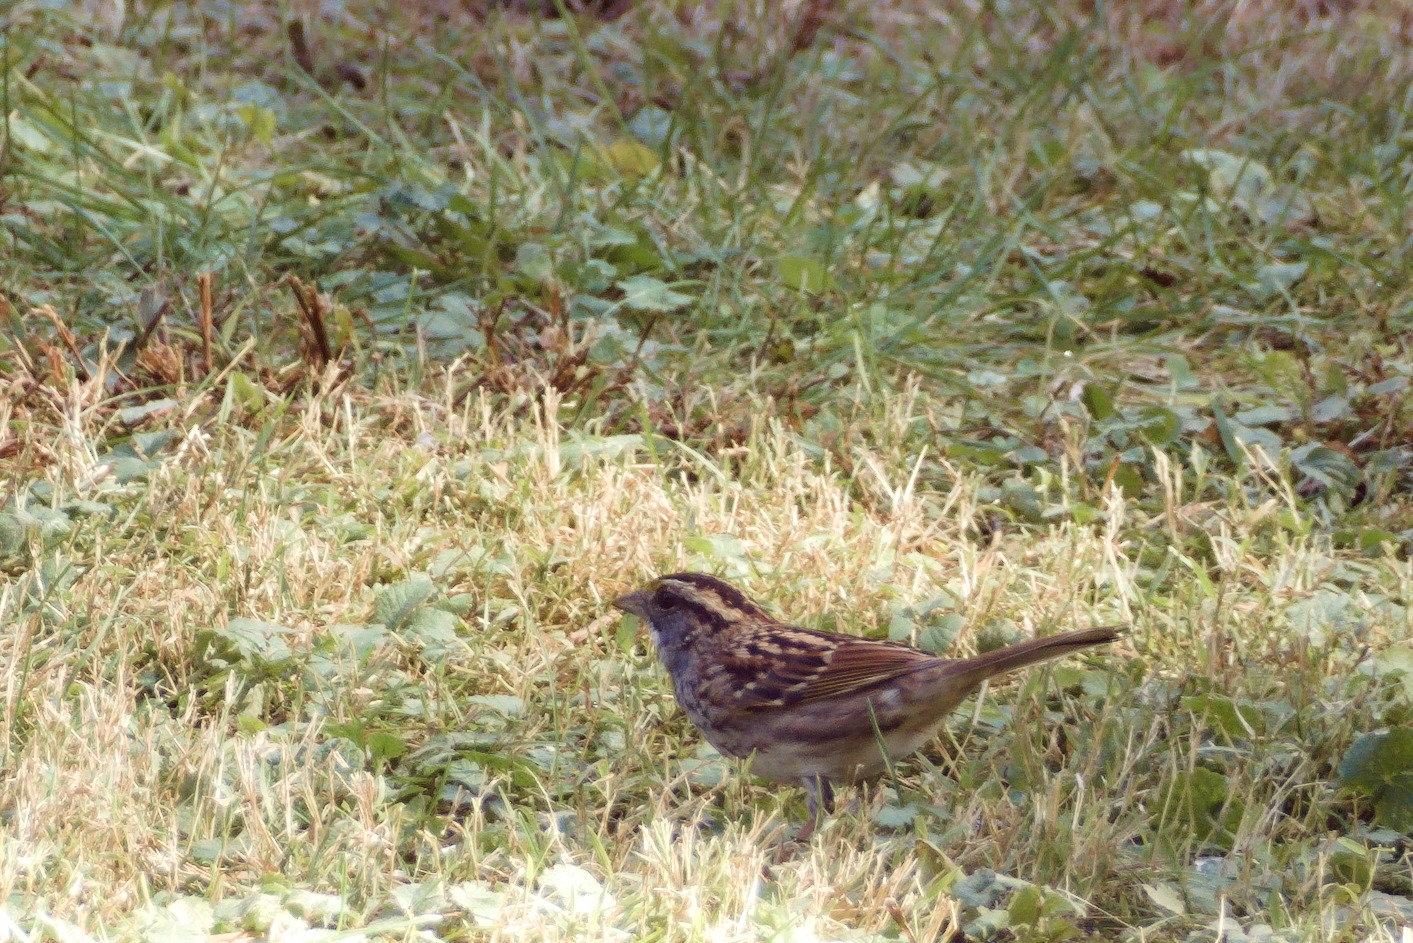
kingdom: Animalia
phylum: Chordata
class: Aves
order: Passeriformes
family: Passerellidae
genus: Zonotrichia
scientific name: Zonotrichia albicollis
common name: White-throated sparrow
